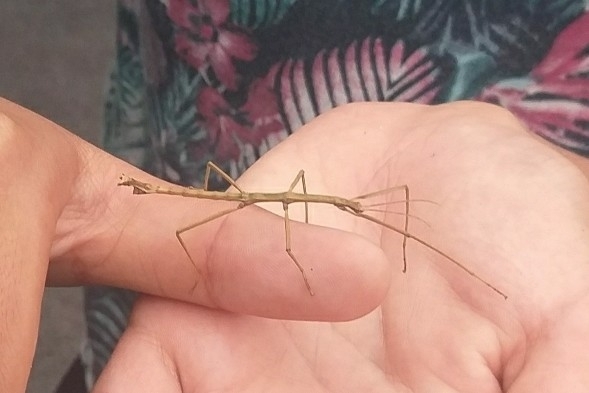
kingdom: Animalia
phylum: Arthropoda
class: Insecta
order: Phasmida
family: Phasmatidae
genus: Niveaphasma
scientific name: Niveaphasma annulatum
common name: Hutton's stick insect
